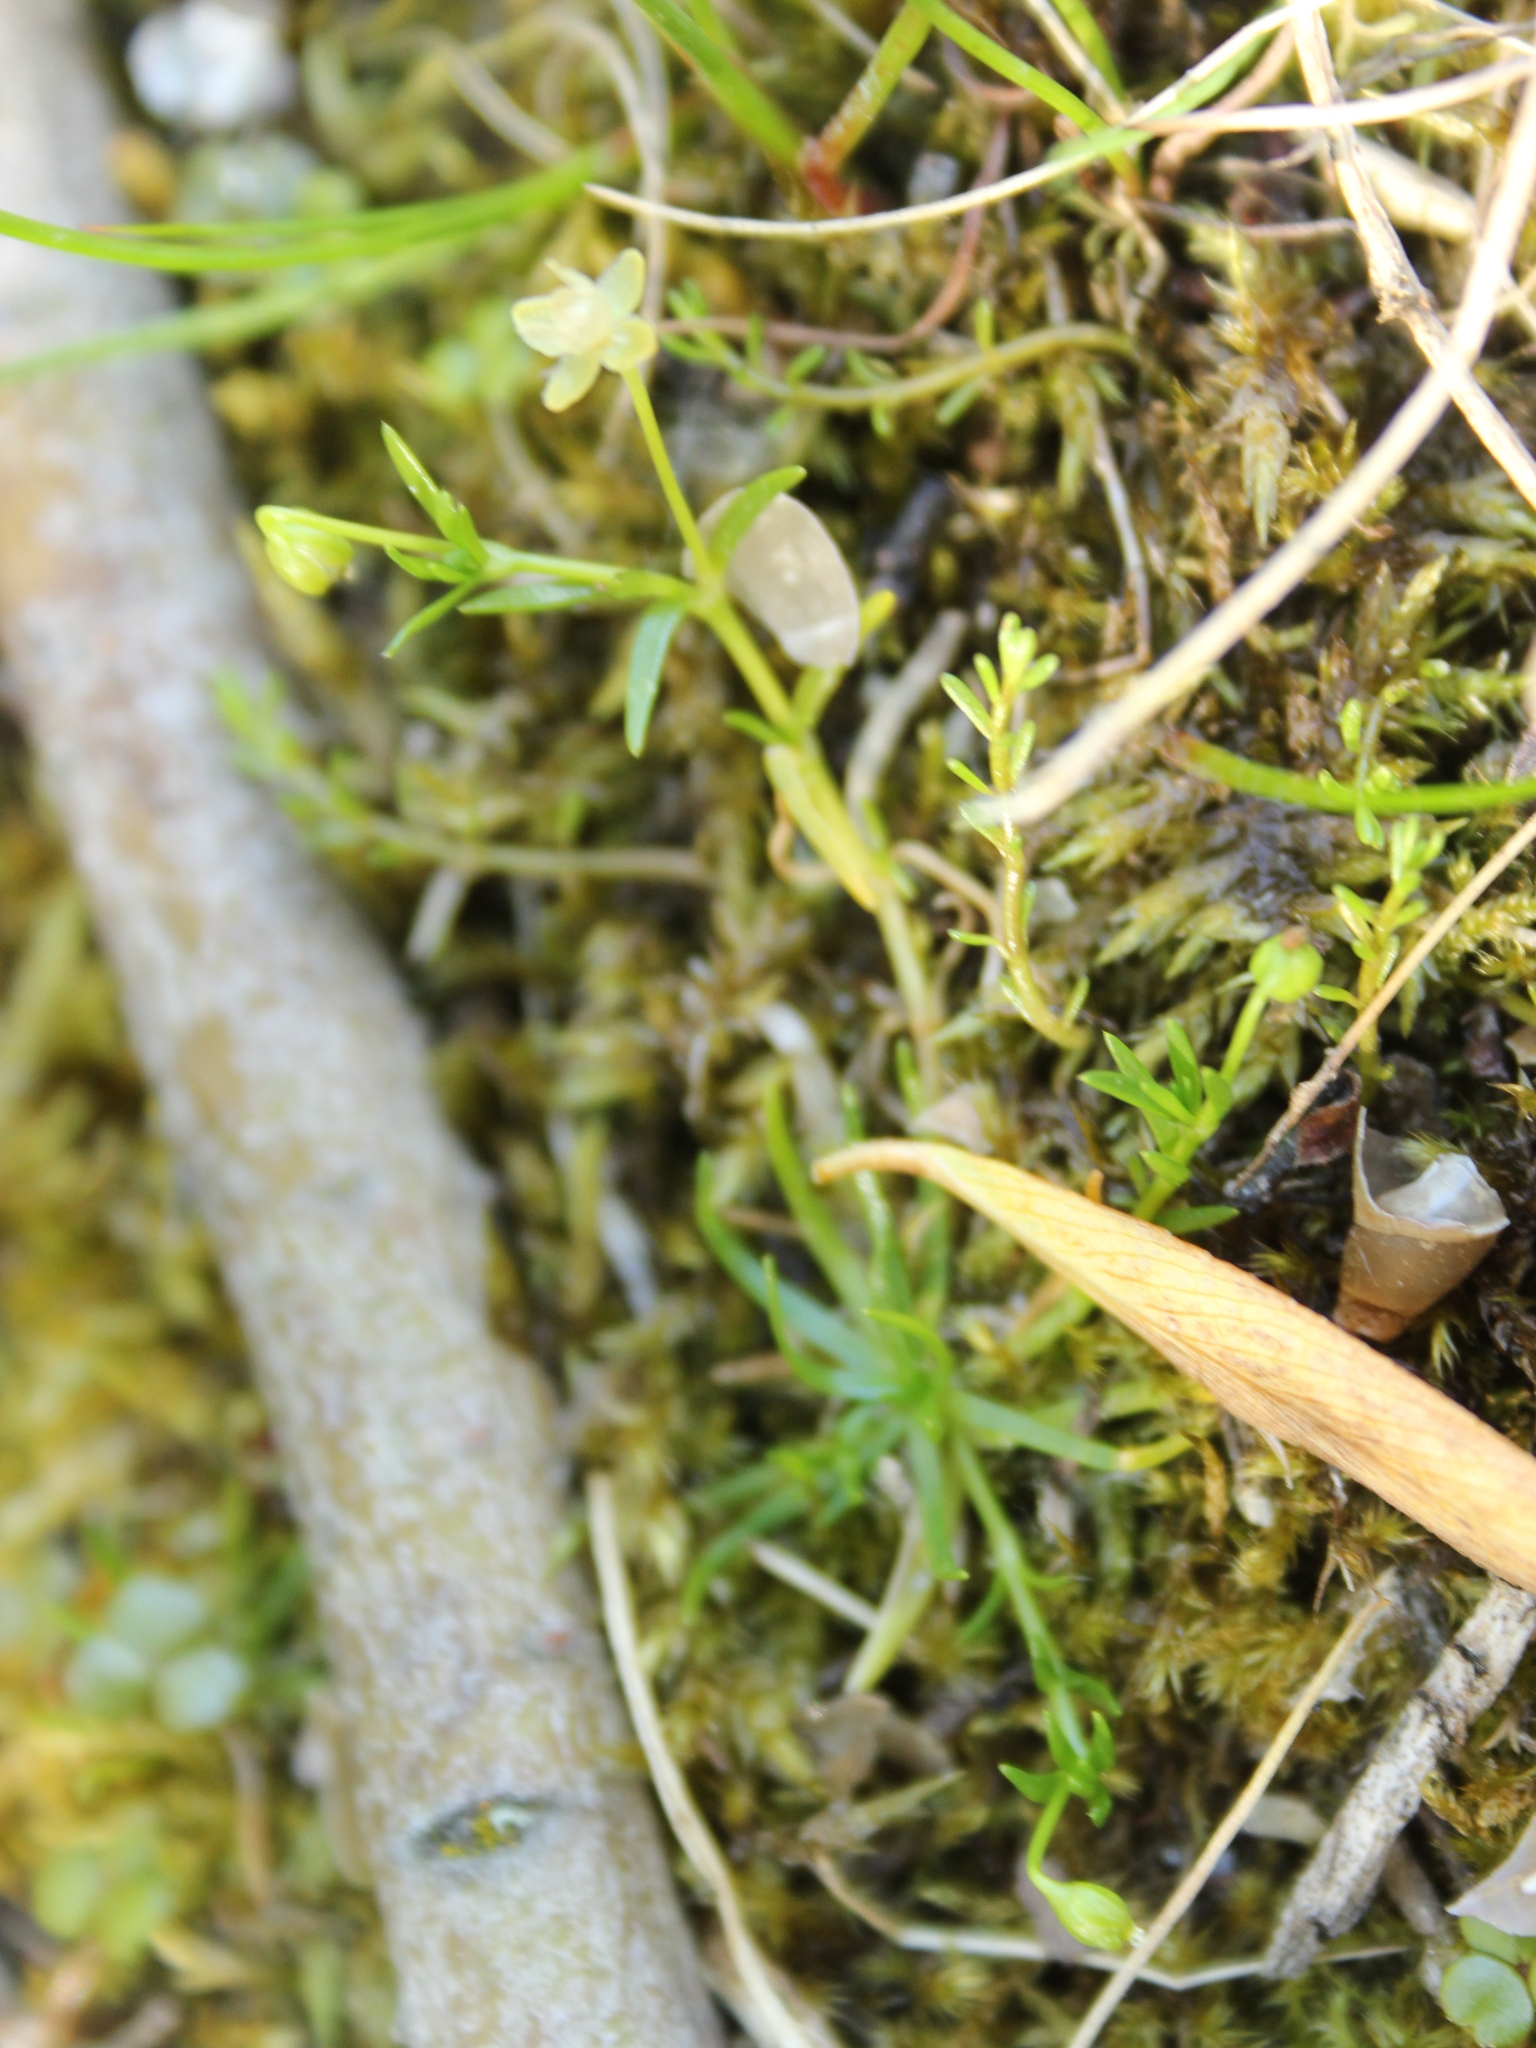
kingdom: Plantae
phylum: Tracheophyta
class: Magnoliopsida
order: Caryophyllales
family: Caryophyllaceae
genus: Sagina
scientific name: Sagina procumbens
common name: Procumbent pearlwort
